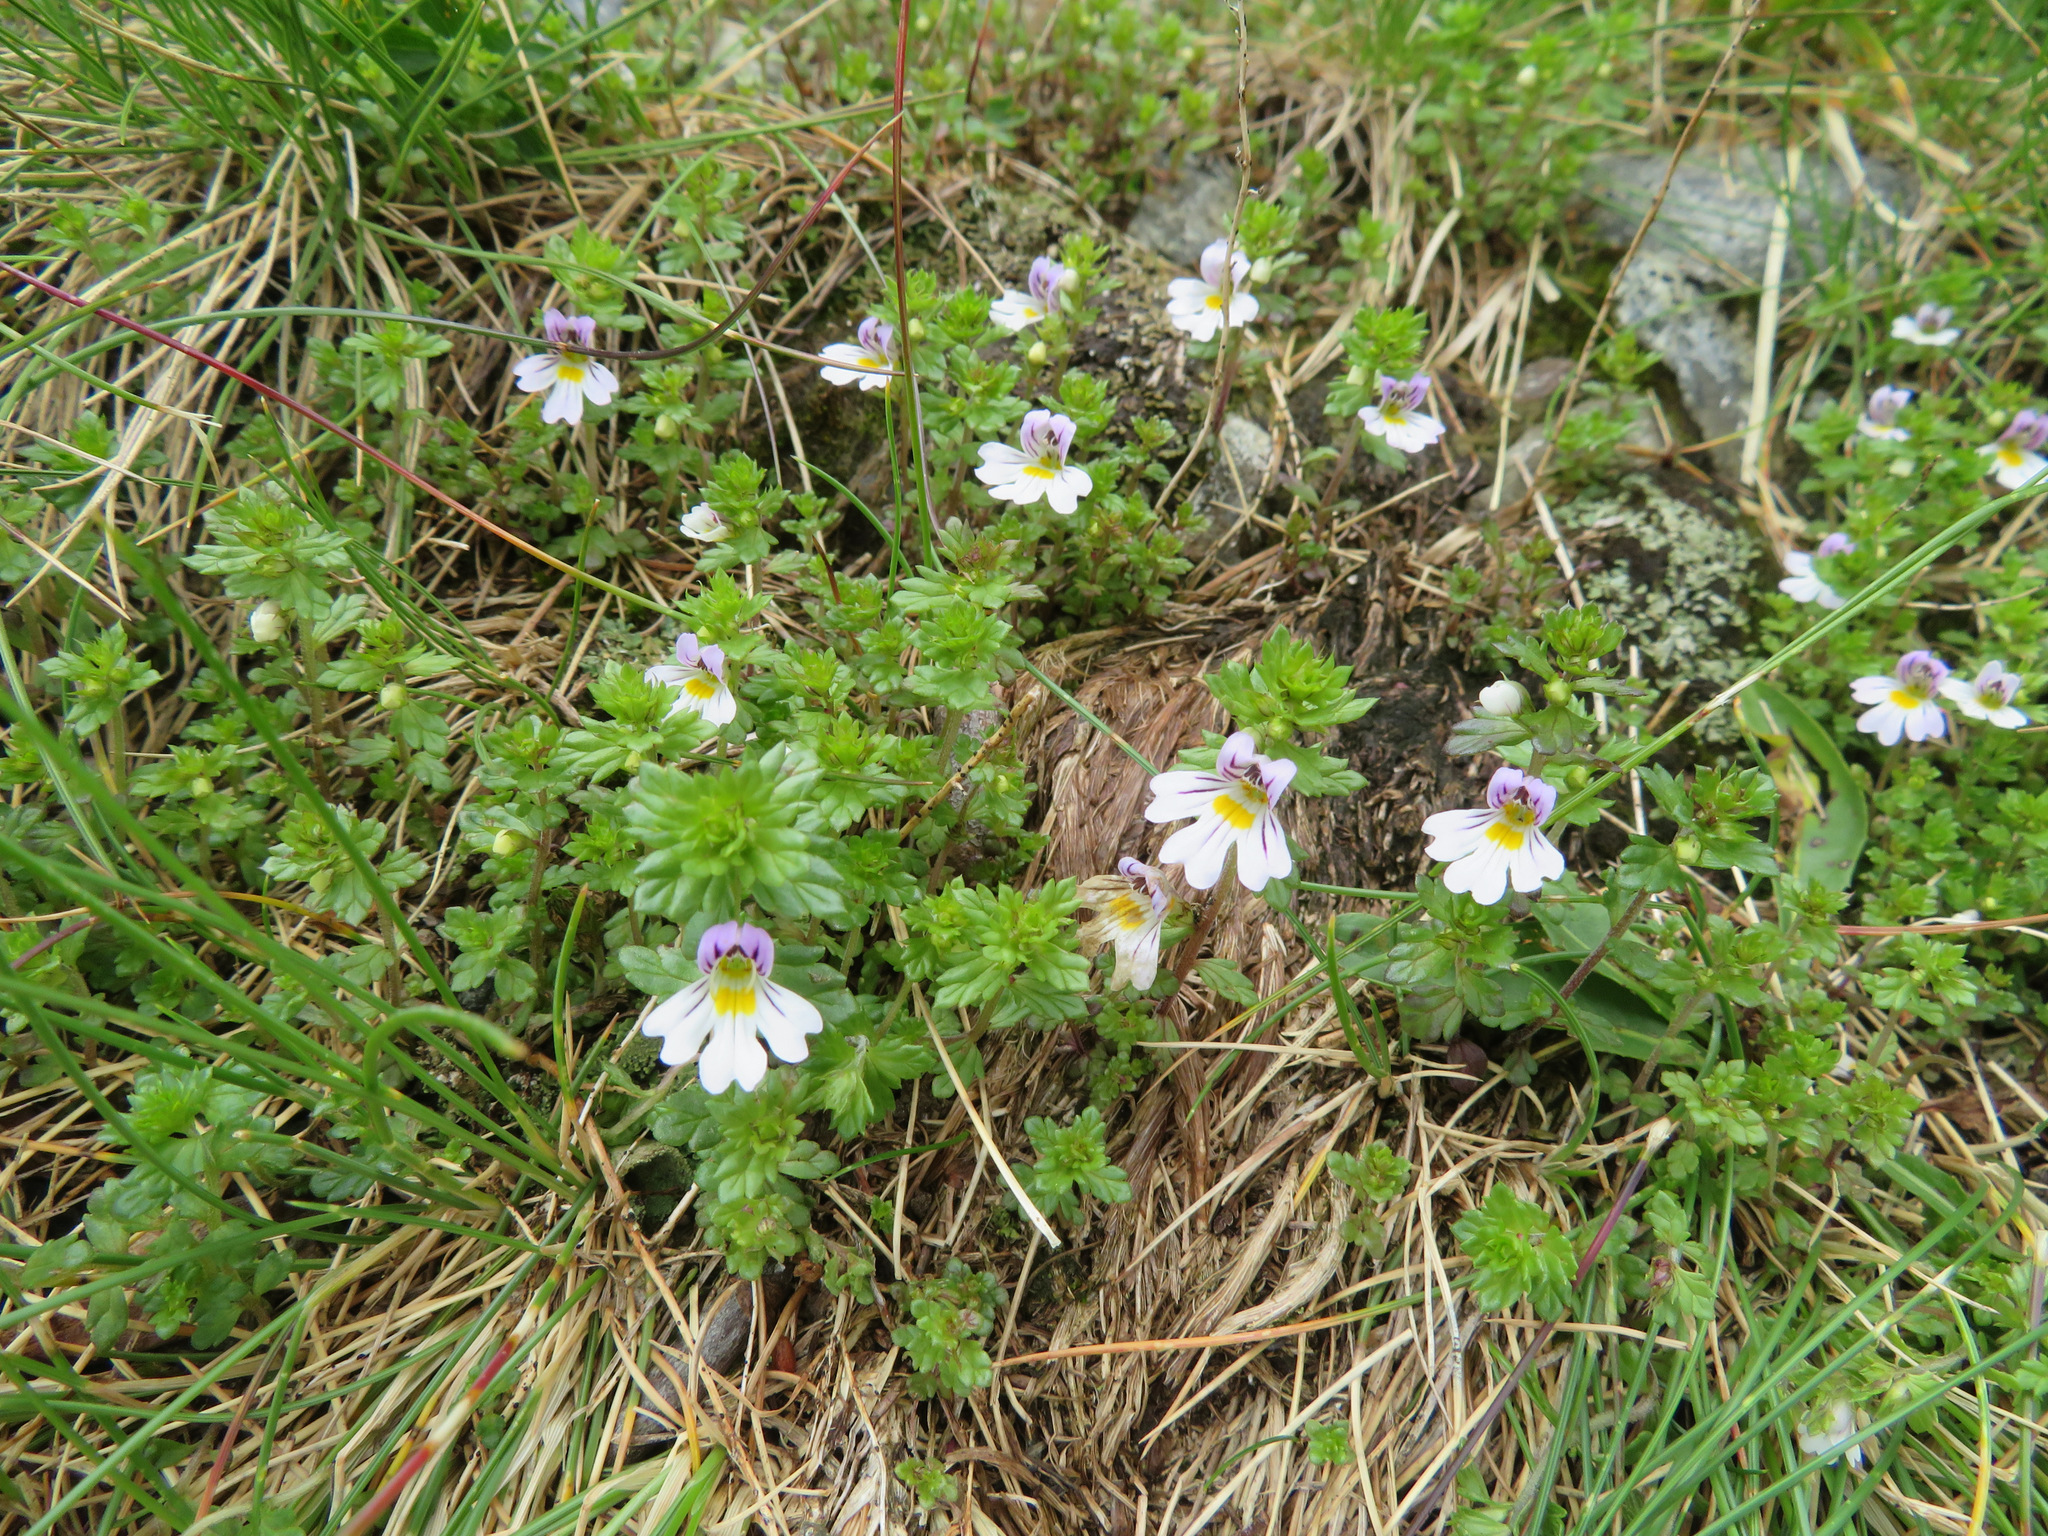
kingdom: Plantae
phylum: Tracheophyta
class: Magnoliopsida
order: Lamiales
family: Orobanchaceae
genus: Euphrasia
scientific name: Euphrasia alpina
